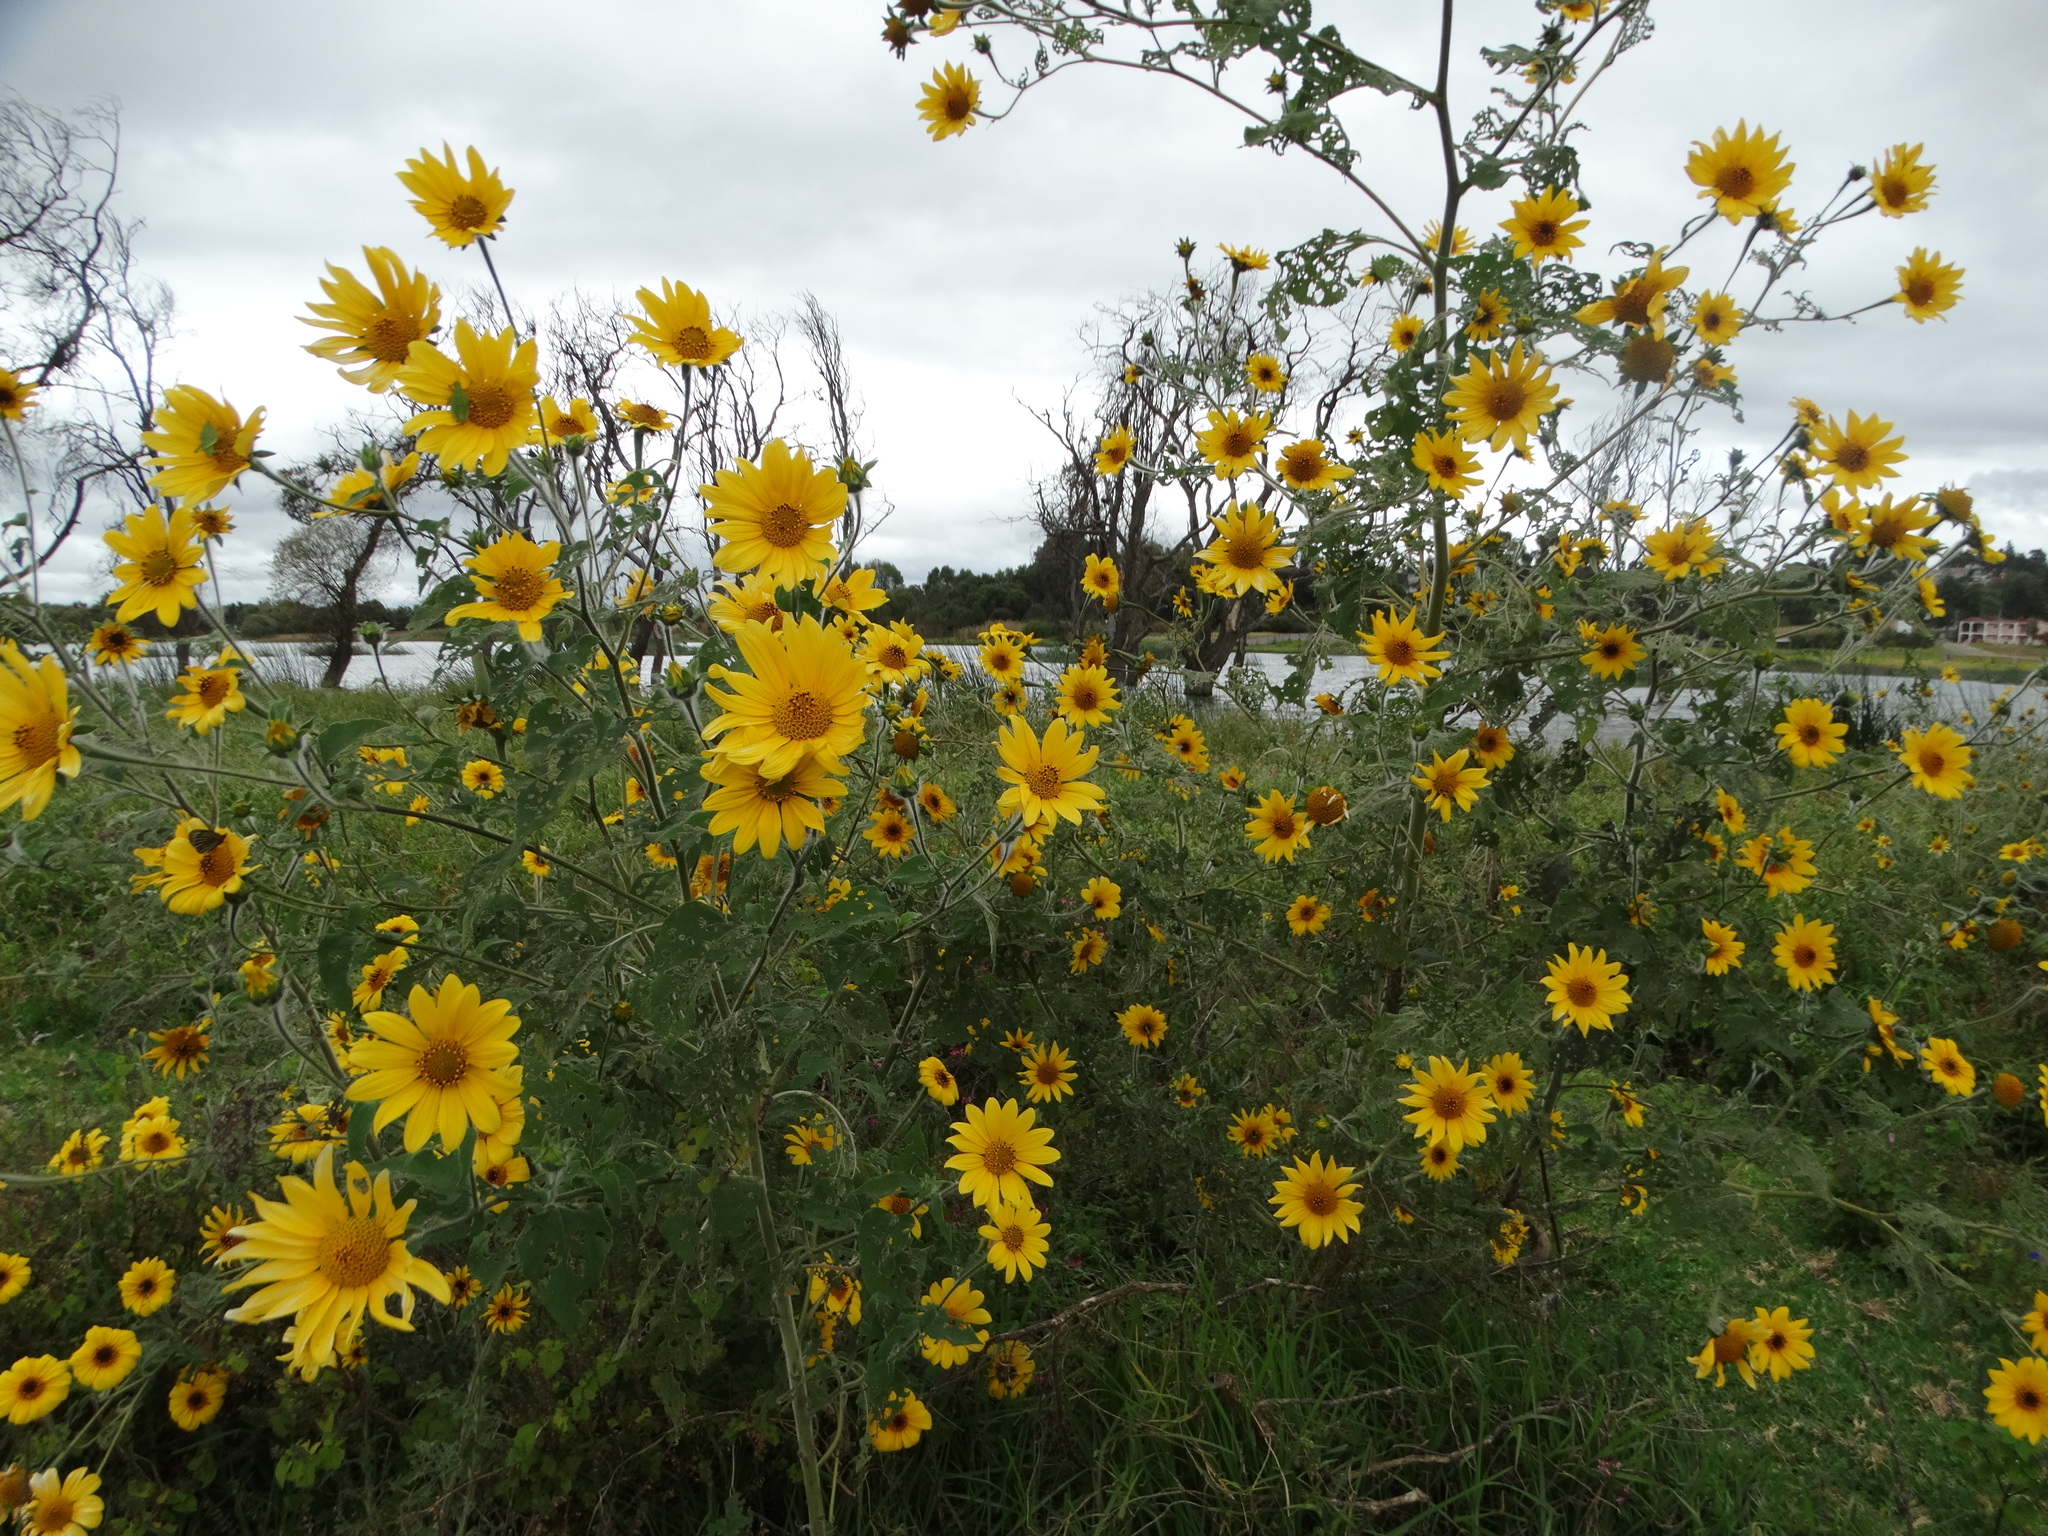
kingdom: Plantae
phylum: Tracheophyta
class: Magnoliopsida
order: Asterales
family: Asteraceae
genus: Tithonia
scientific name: Tithonia tubaeformis
